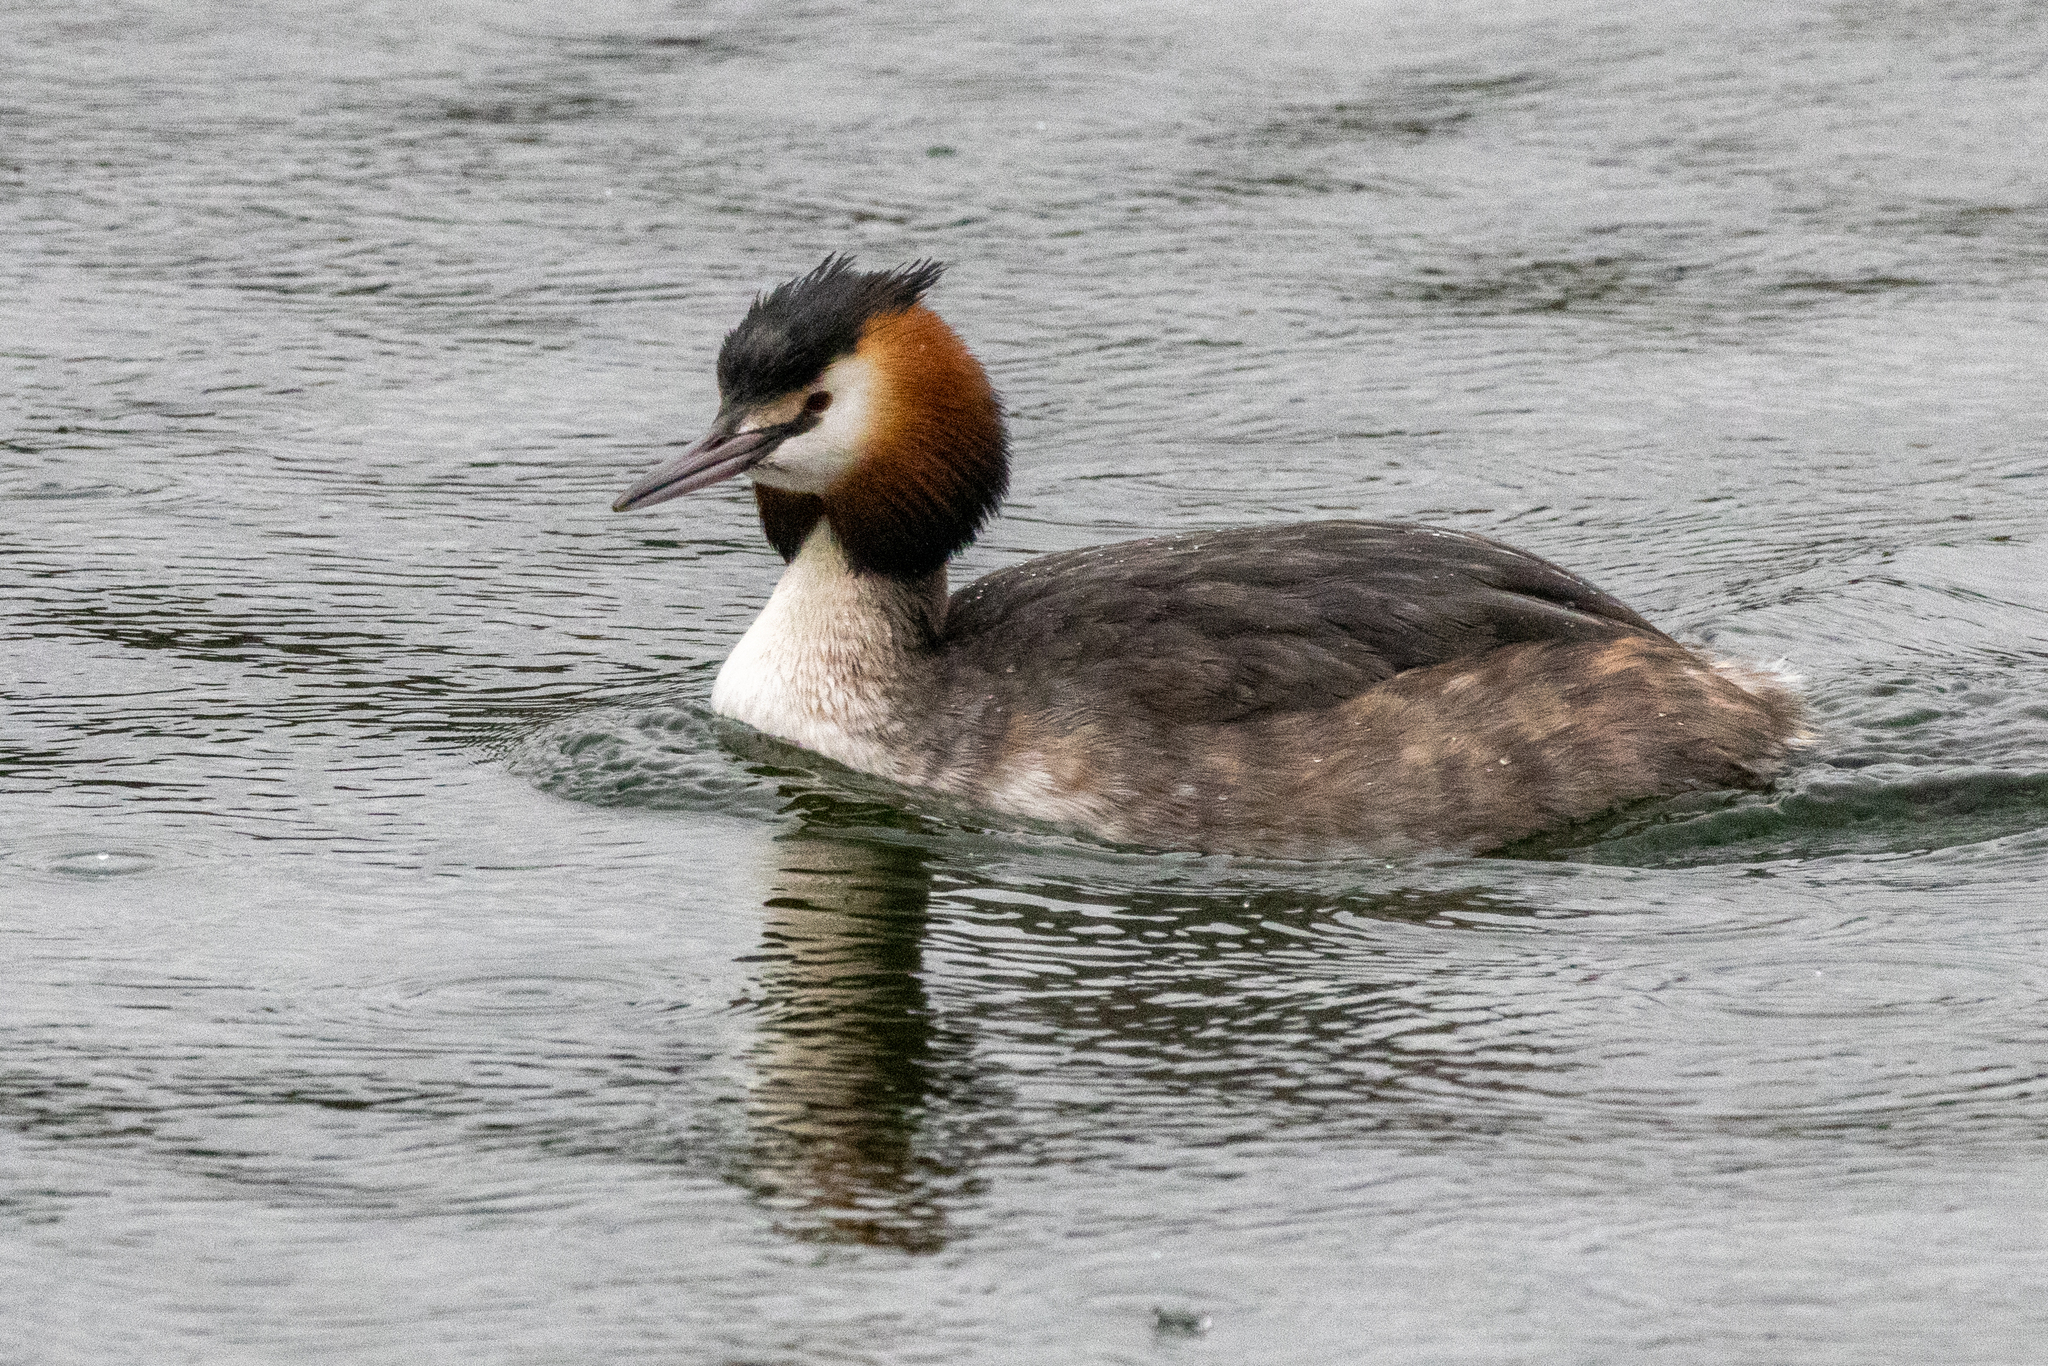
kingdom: Animalia
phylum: Chordata
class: Aves
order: Podicipediformes
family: Podicipedidae
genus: Podiceps
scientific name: Podiceps cristatus
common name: Great crested grebe
